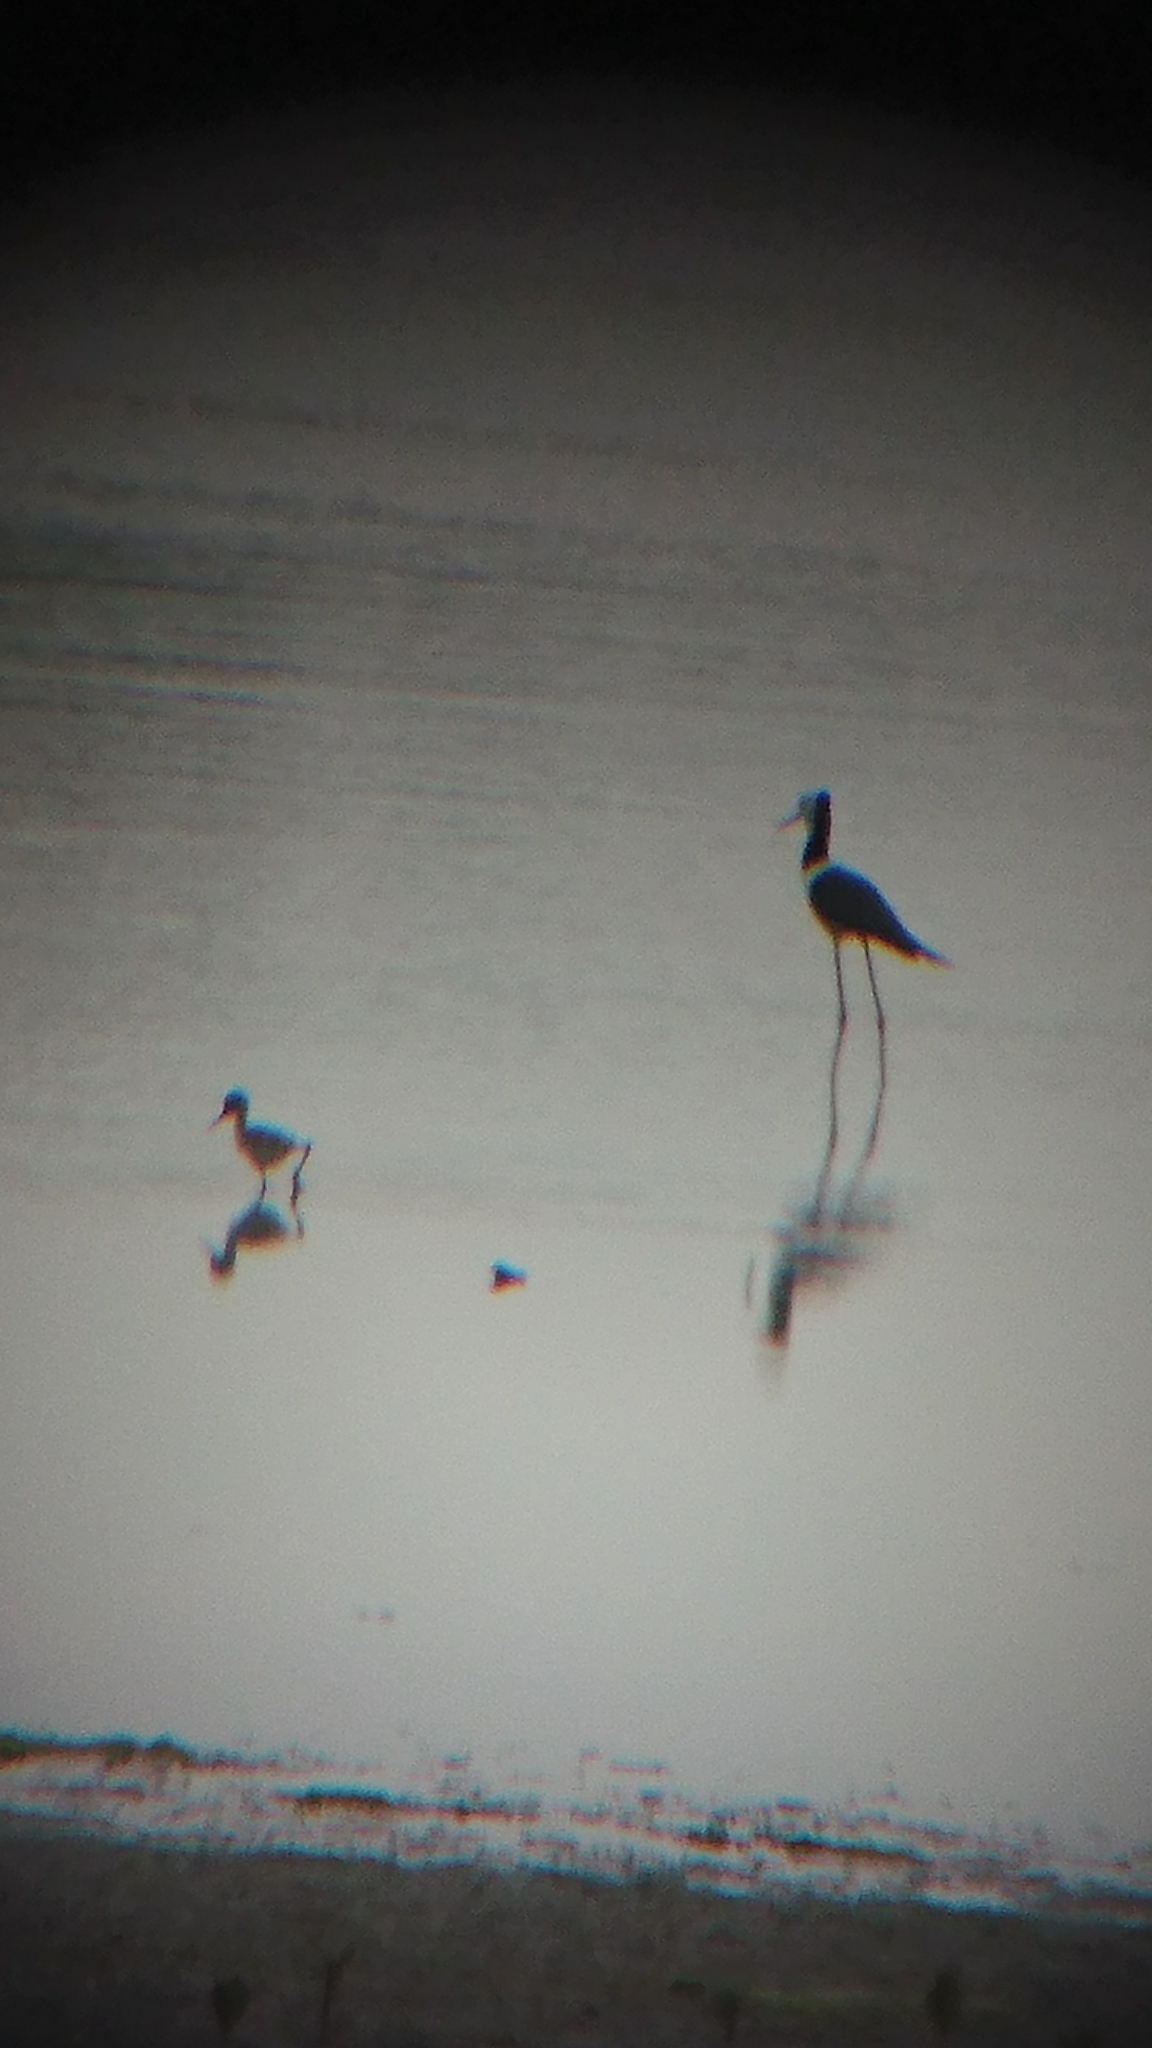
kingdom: Animalia
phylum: Chordata
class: Aves
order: Charadriiformes
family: Recurvirostridae
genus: Himantopus
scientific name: Himantopus leucocephalus
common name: White-headed stilt
